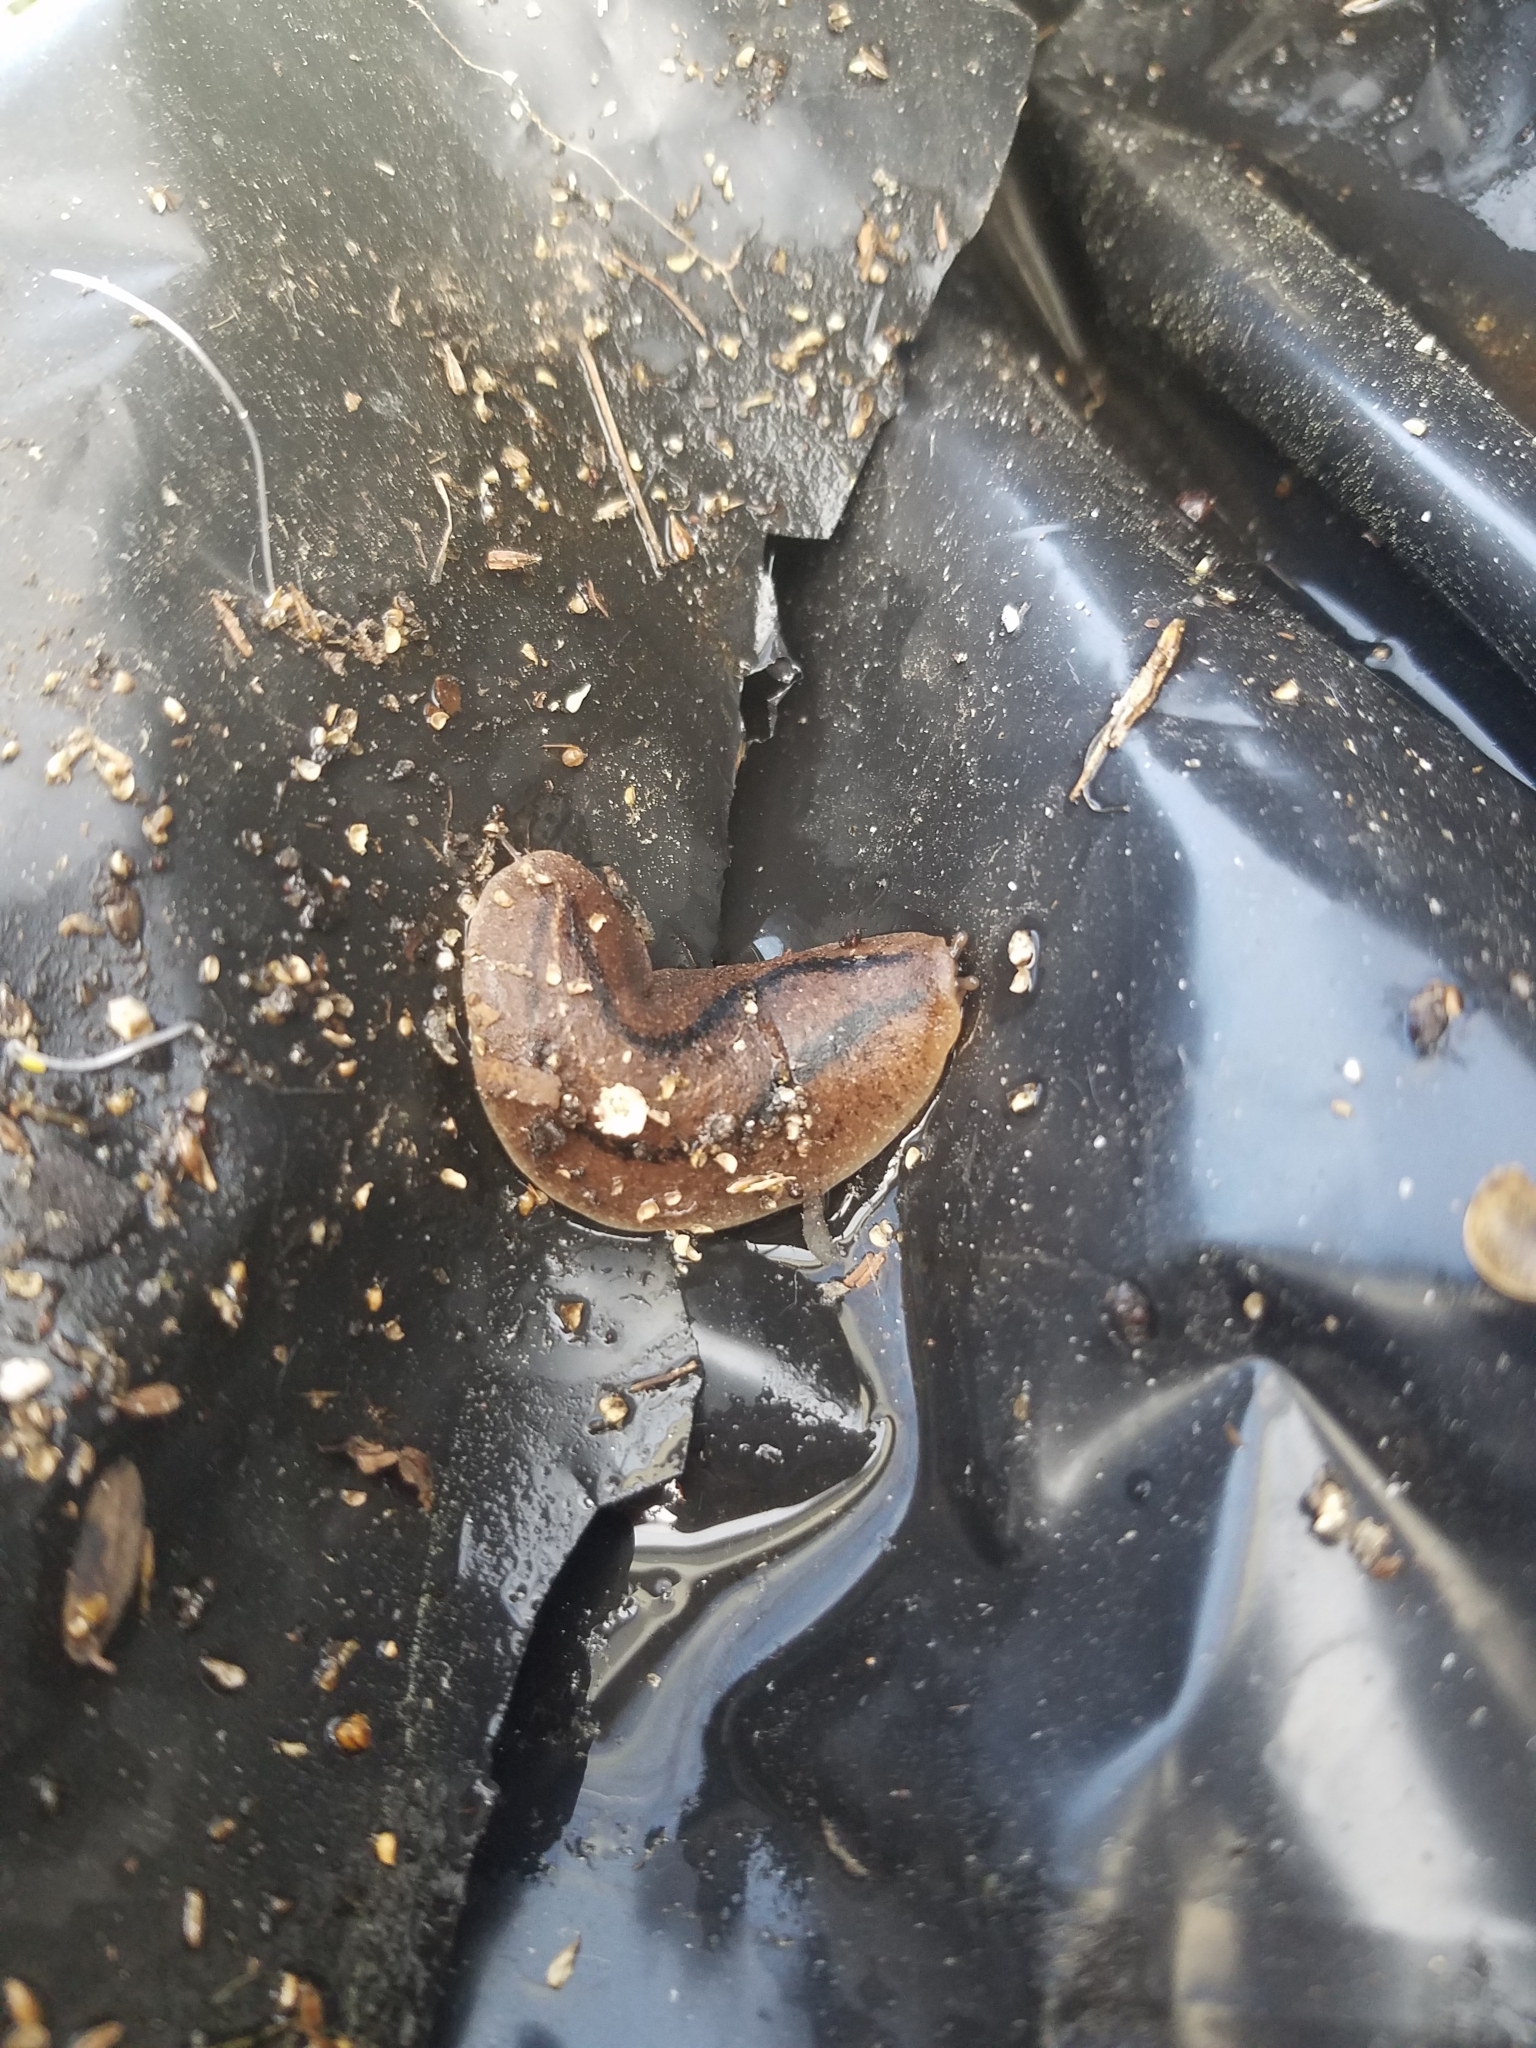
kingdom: Animalia
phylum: Mollusca
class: Gastropoda
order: Systellommatophora
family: Veronicellidae
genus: Leidyula
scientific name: Leidyula floridana
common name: Florida leatherleaf
